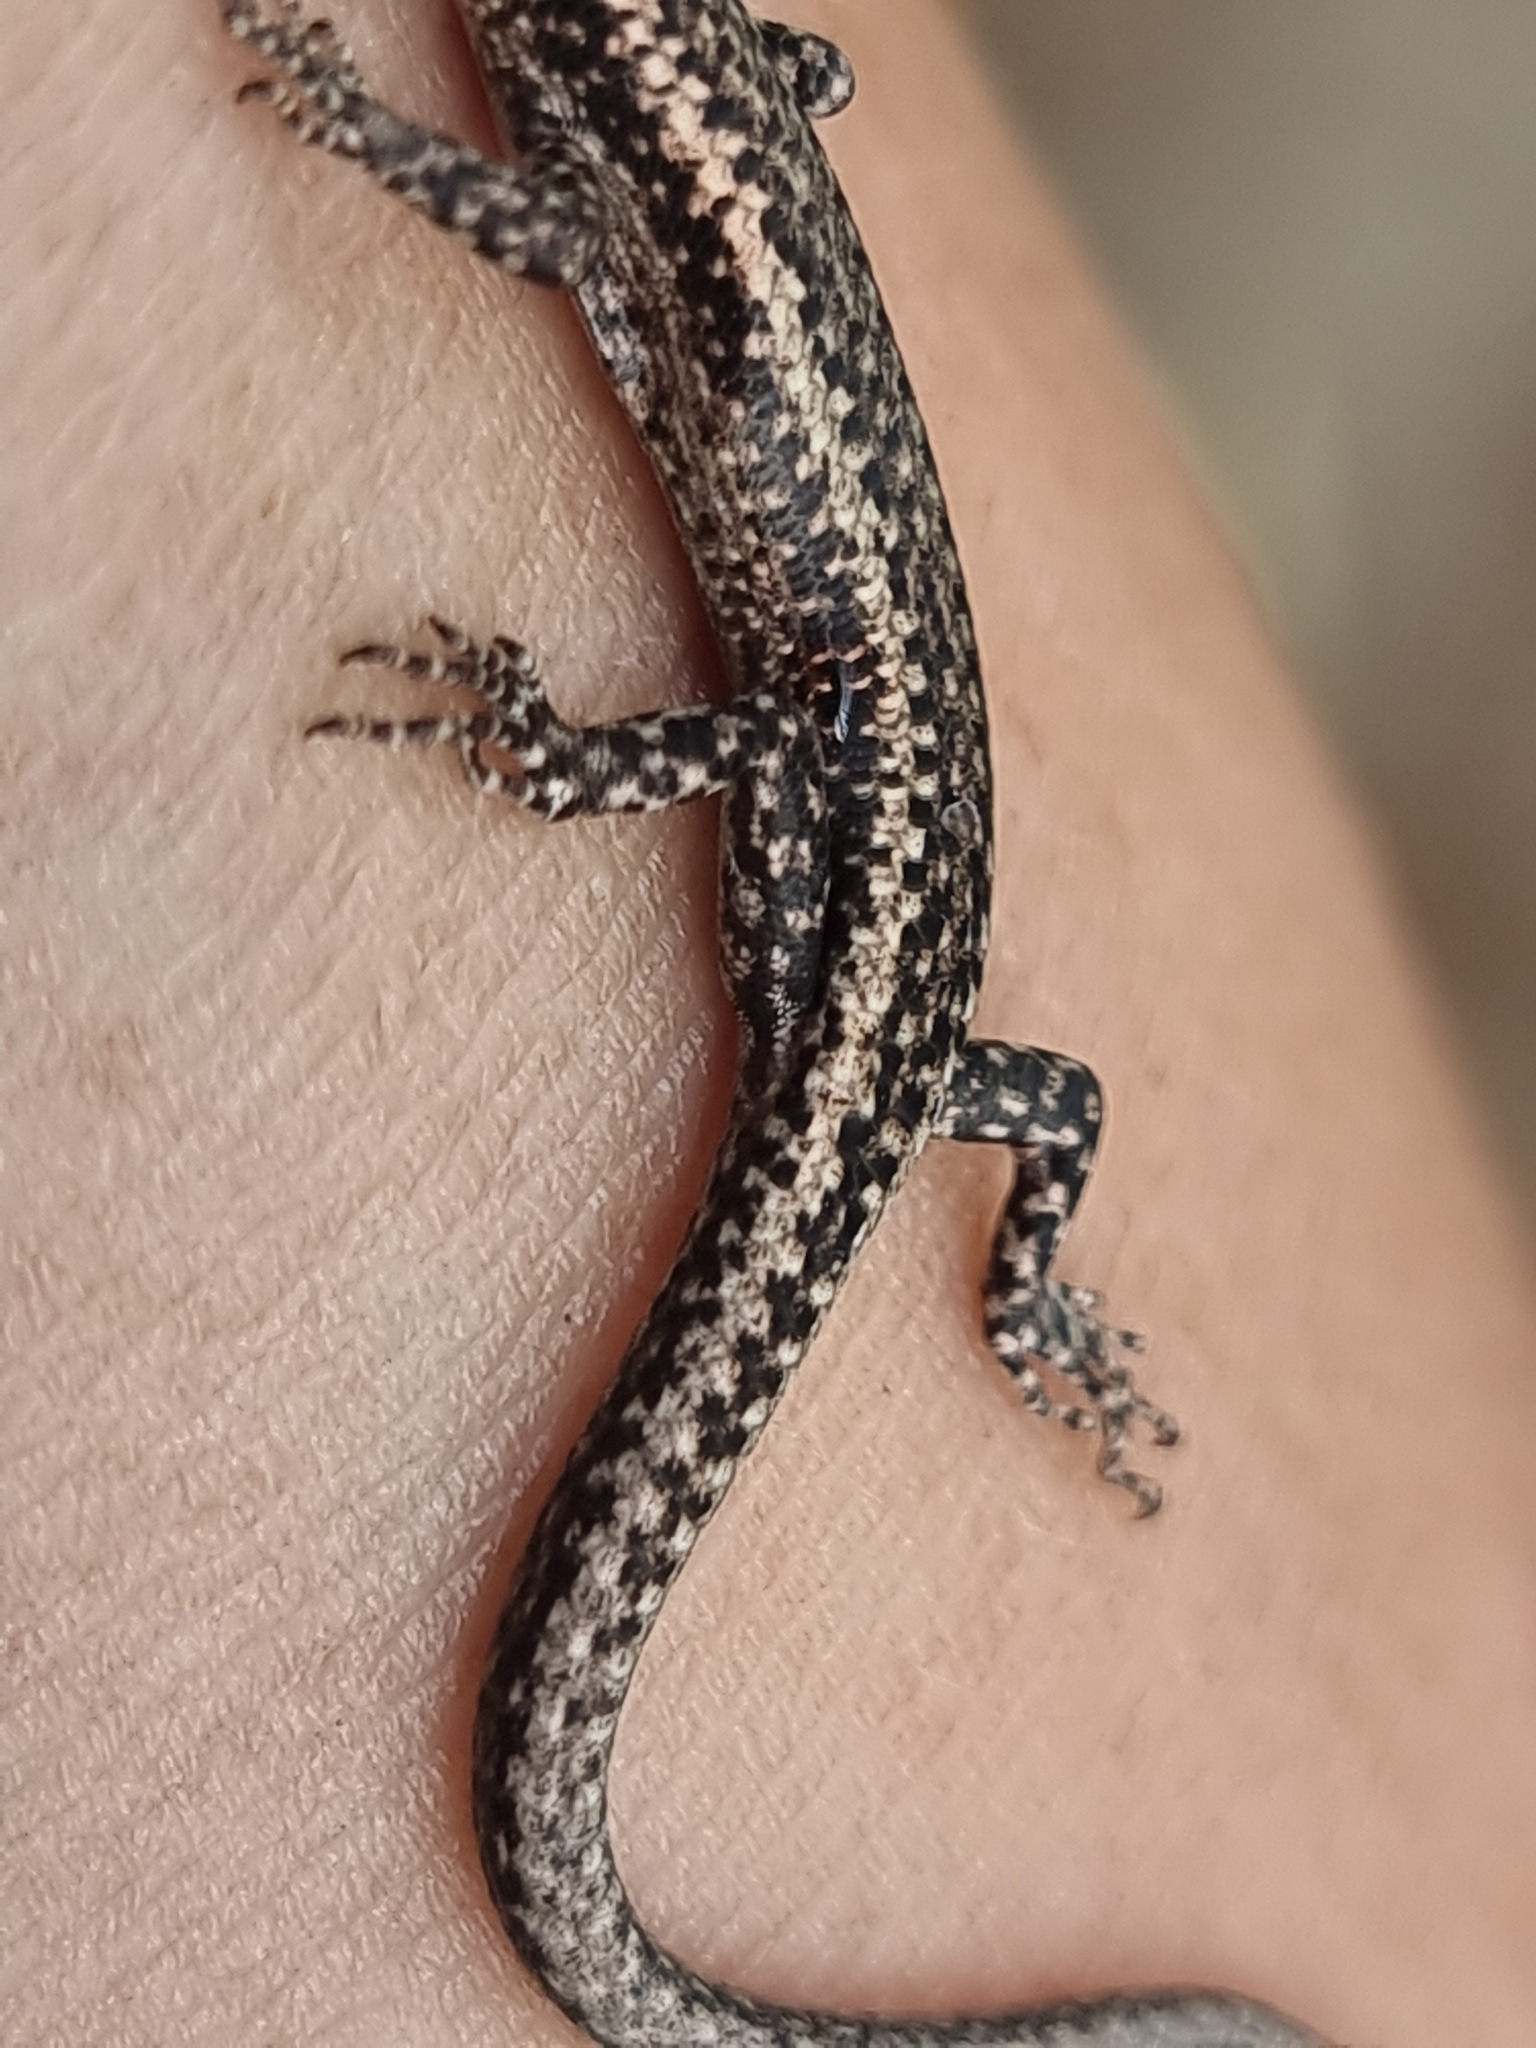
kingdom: Animalia
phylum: Chordata
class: Squamata
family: Scincidae
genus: Cryptoblepharus
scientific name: Cryptoblepharus buchananii
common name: Buchanan's snake-eyed skink
